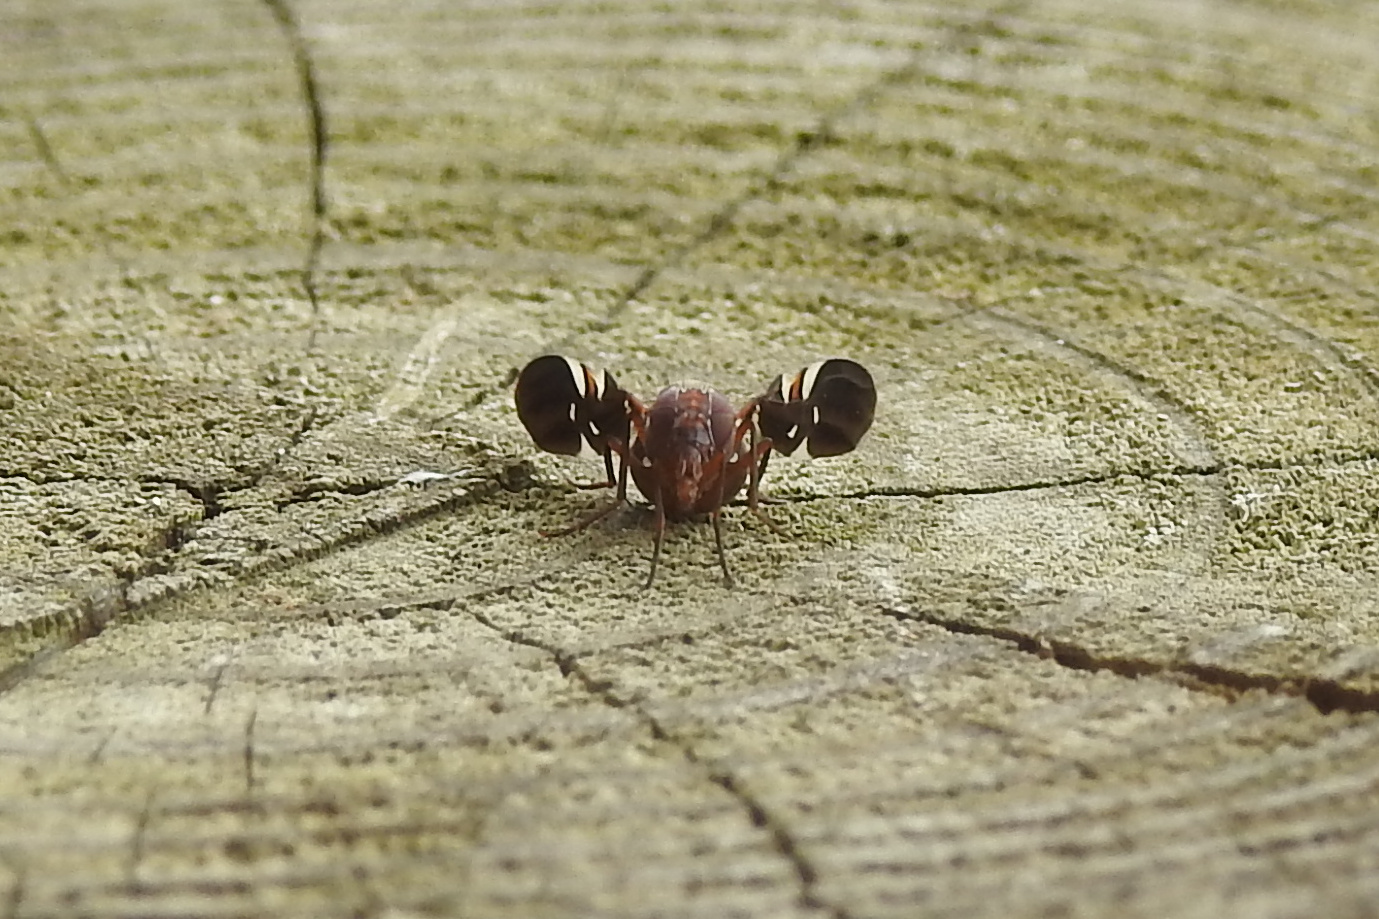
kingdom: Animalia
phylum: Arthropoda
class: Insecta
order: Diptera
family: Ulidiidae
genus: Delphinia
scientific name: Delphinia picta
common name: Common picture-winged fly
